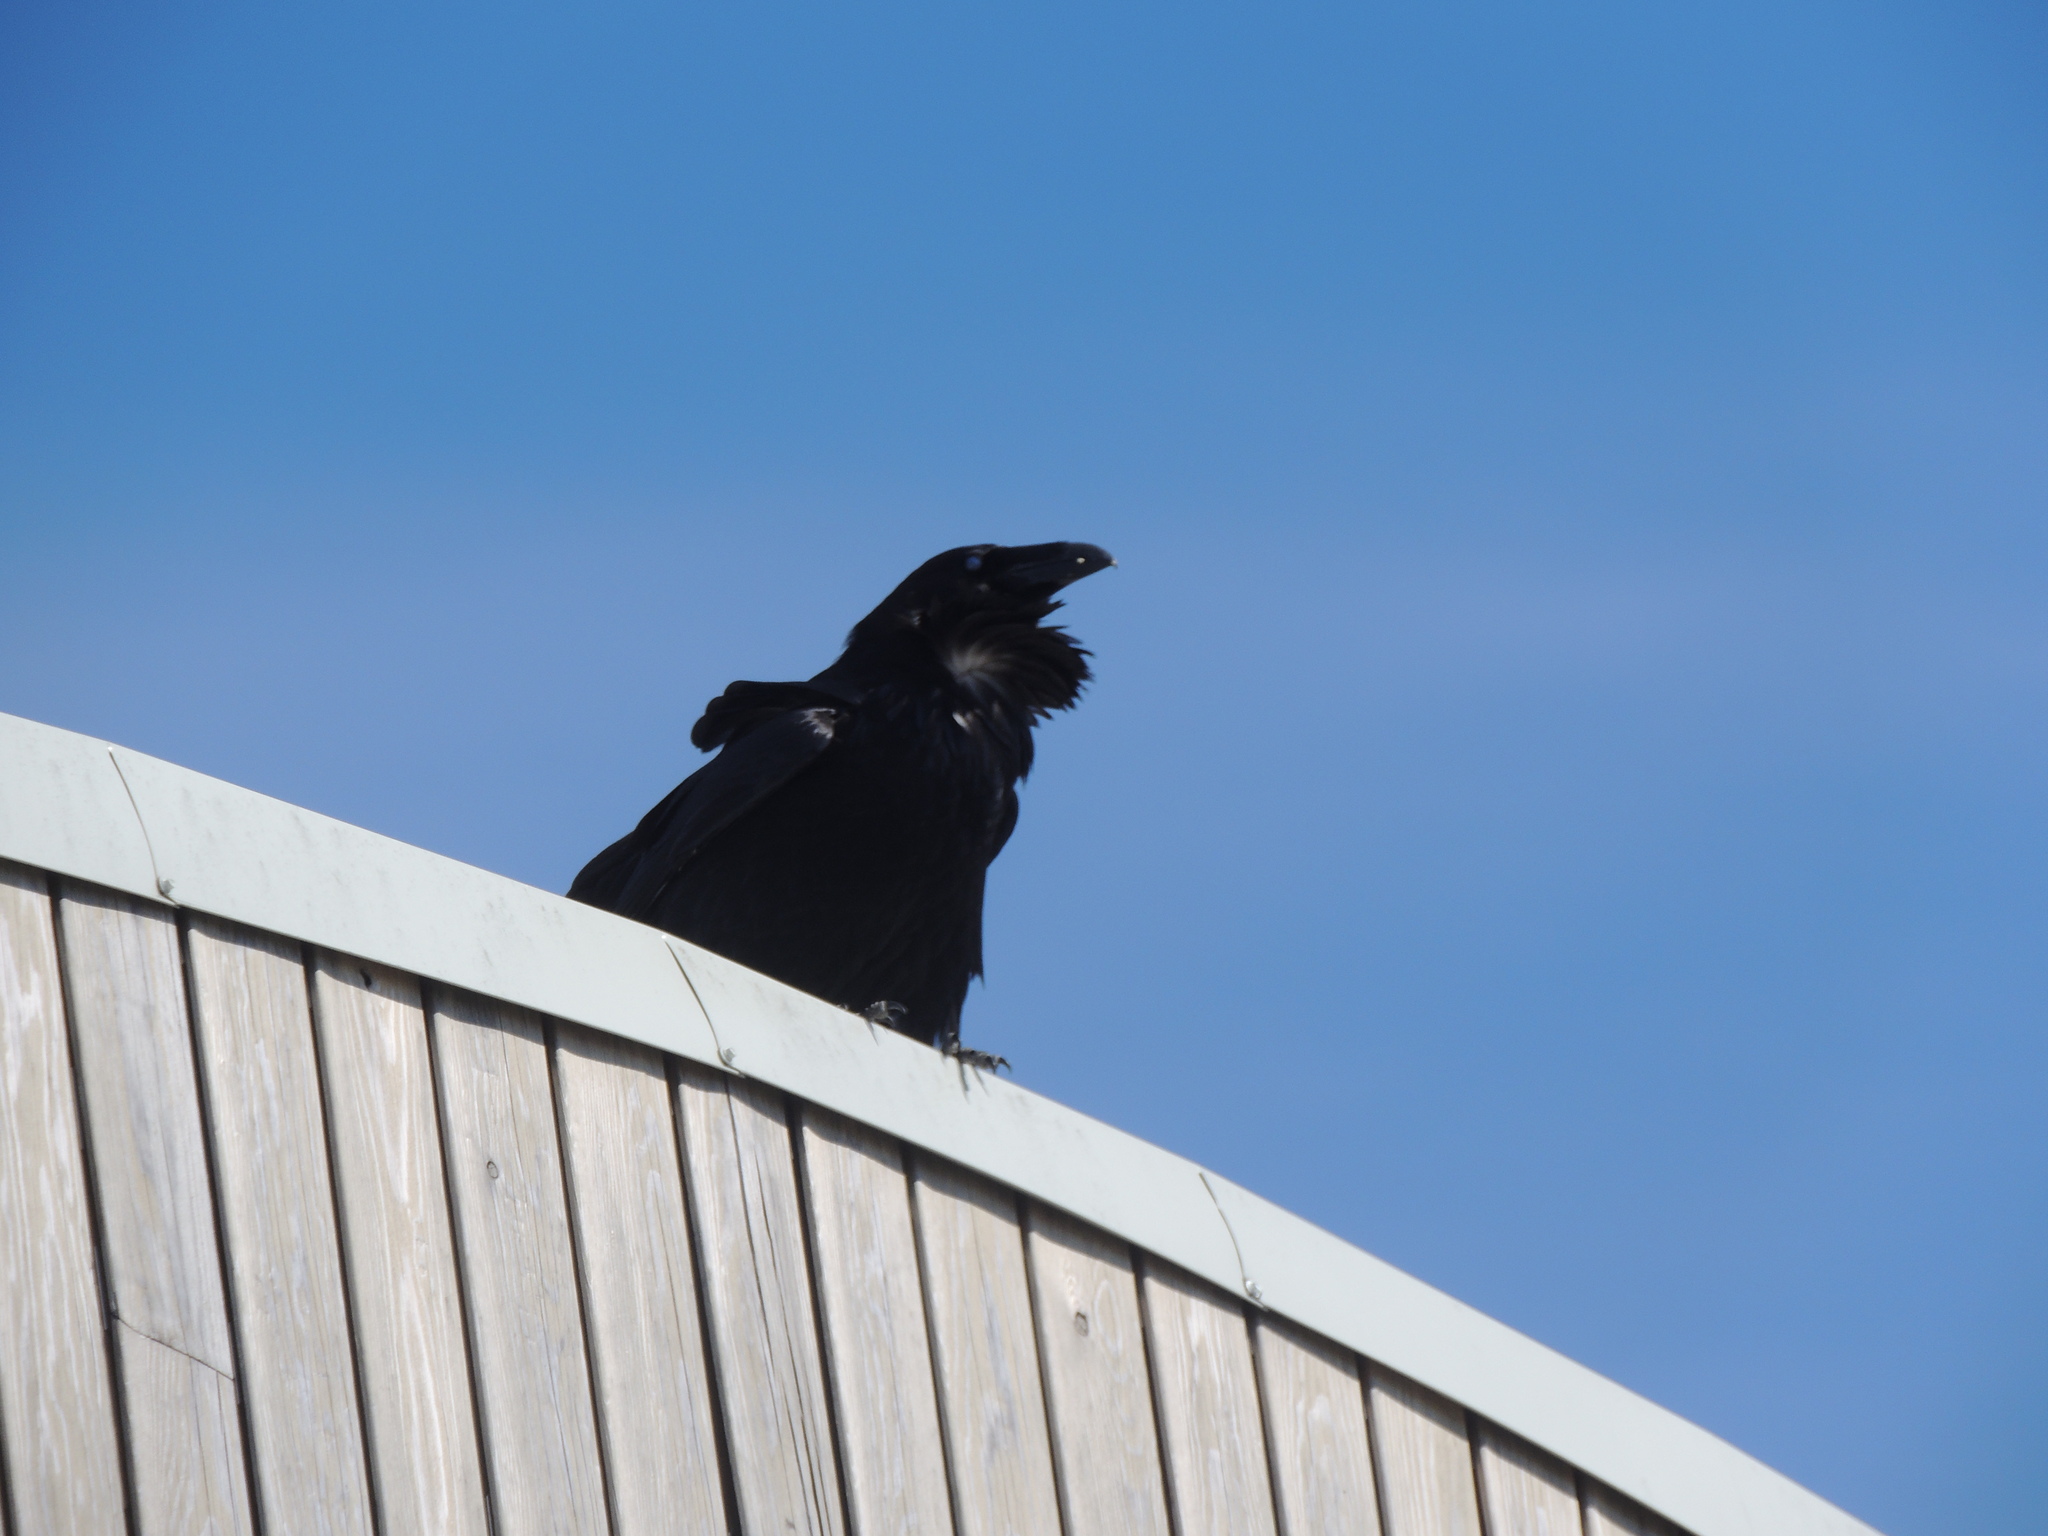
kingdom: Animalia
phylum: Chordata
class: Aves
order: Passeriformes
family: Corvidae
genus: Corvus
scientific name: Corvus corax
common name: Common raven
